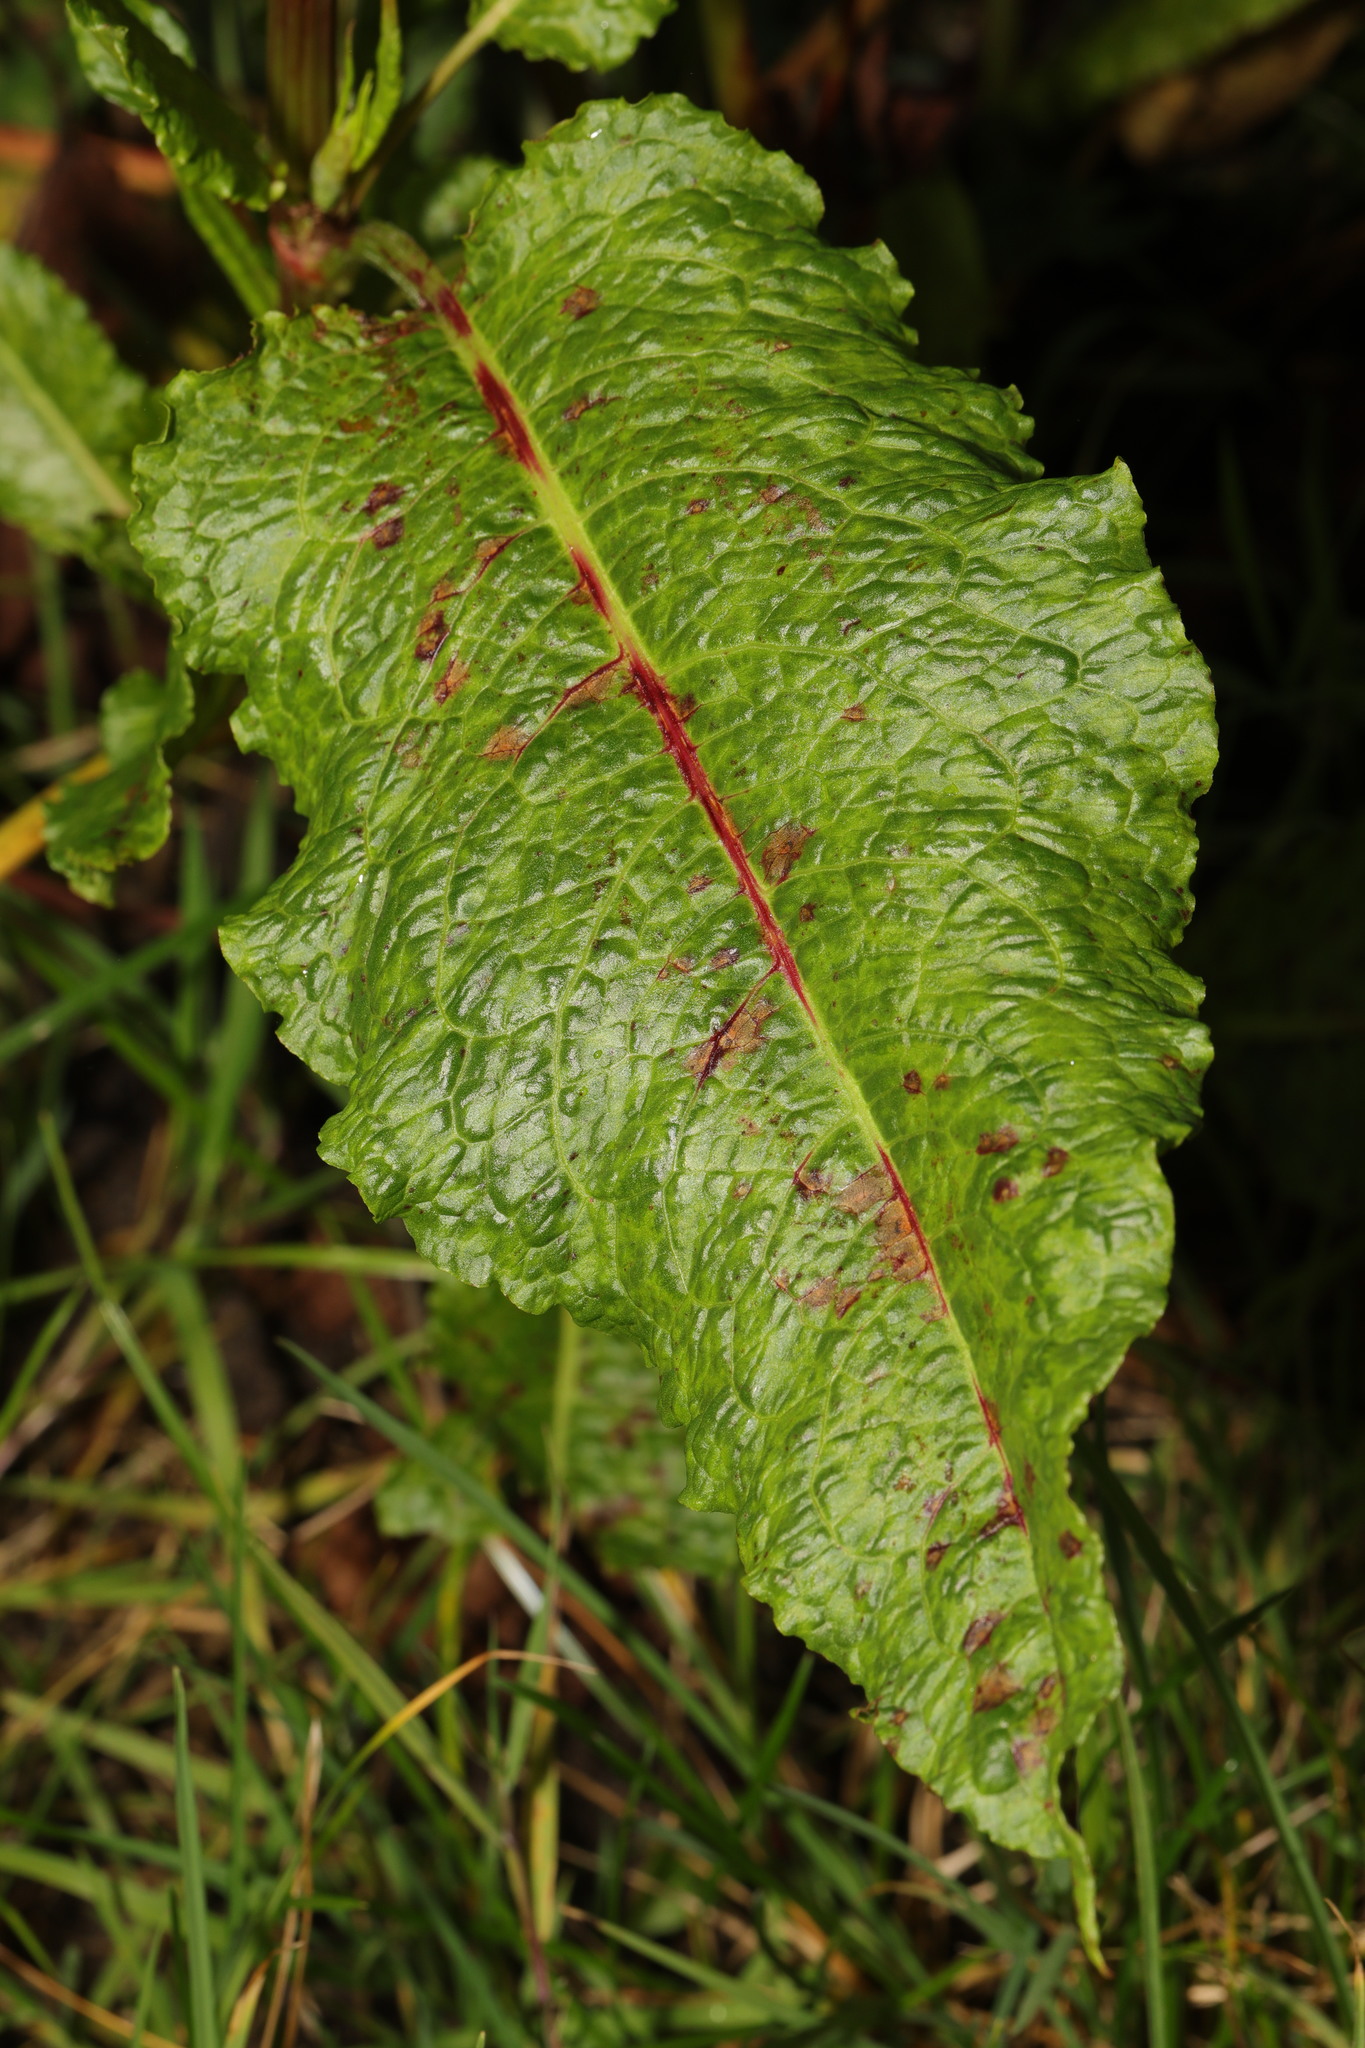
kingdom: Plantae
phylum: Tracheophyta
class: Magnoliopsida
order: Caryophyllales
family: Polygonaceae
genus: Rumex
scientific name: Rumex obtusifolius
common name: Bitter dock
